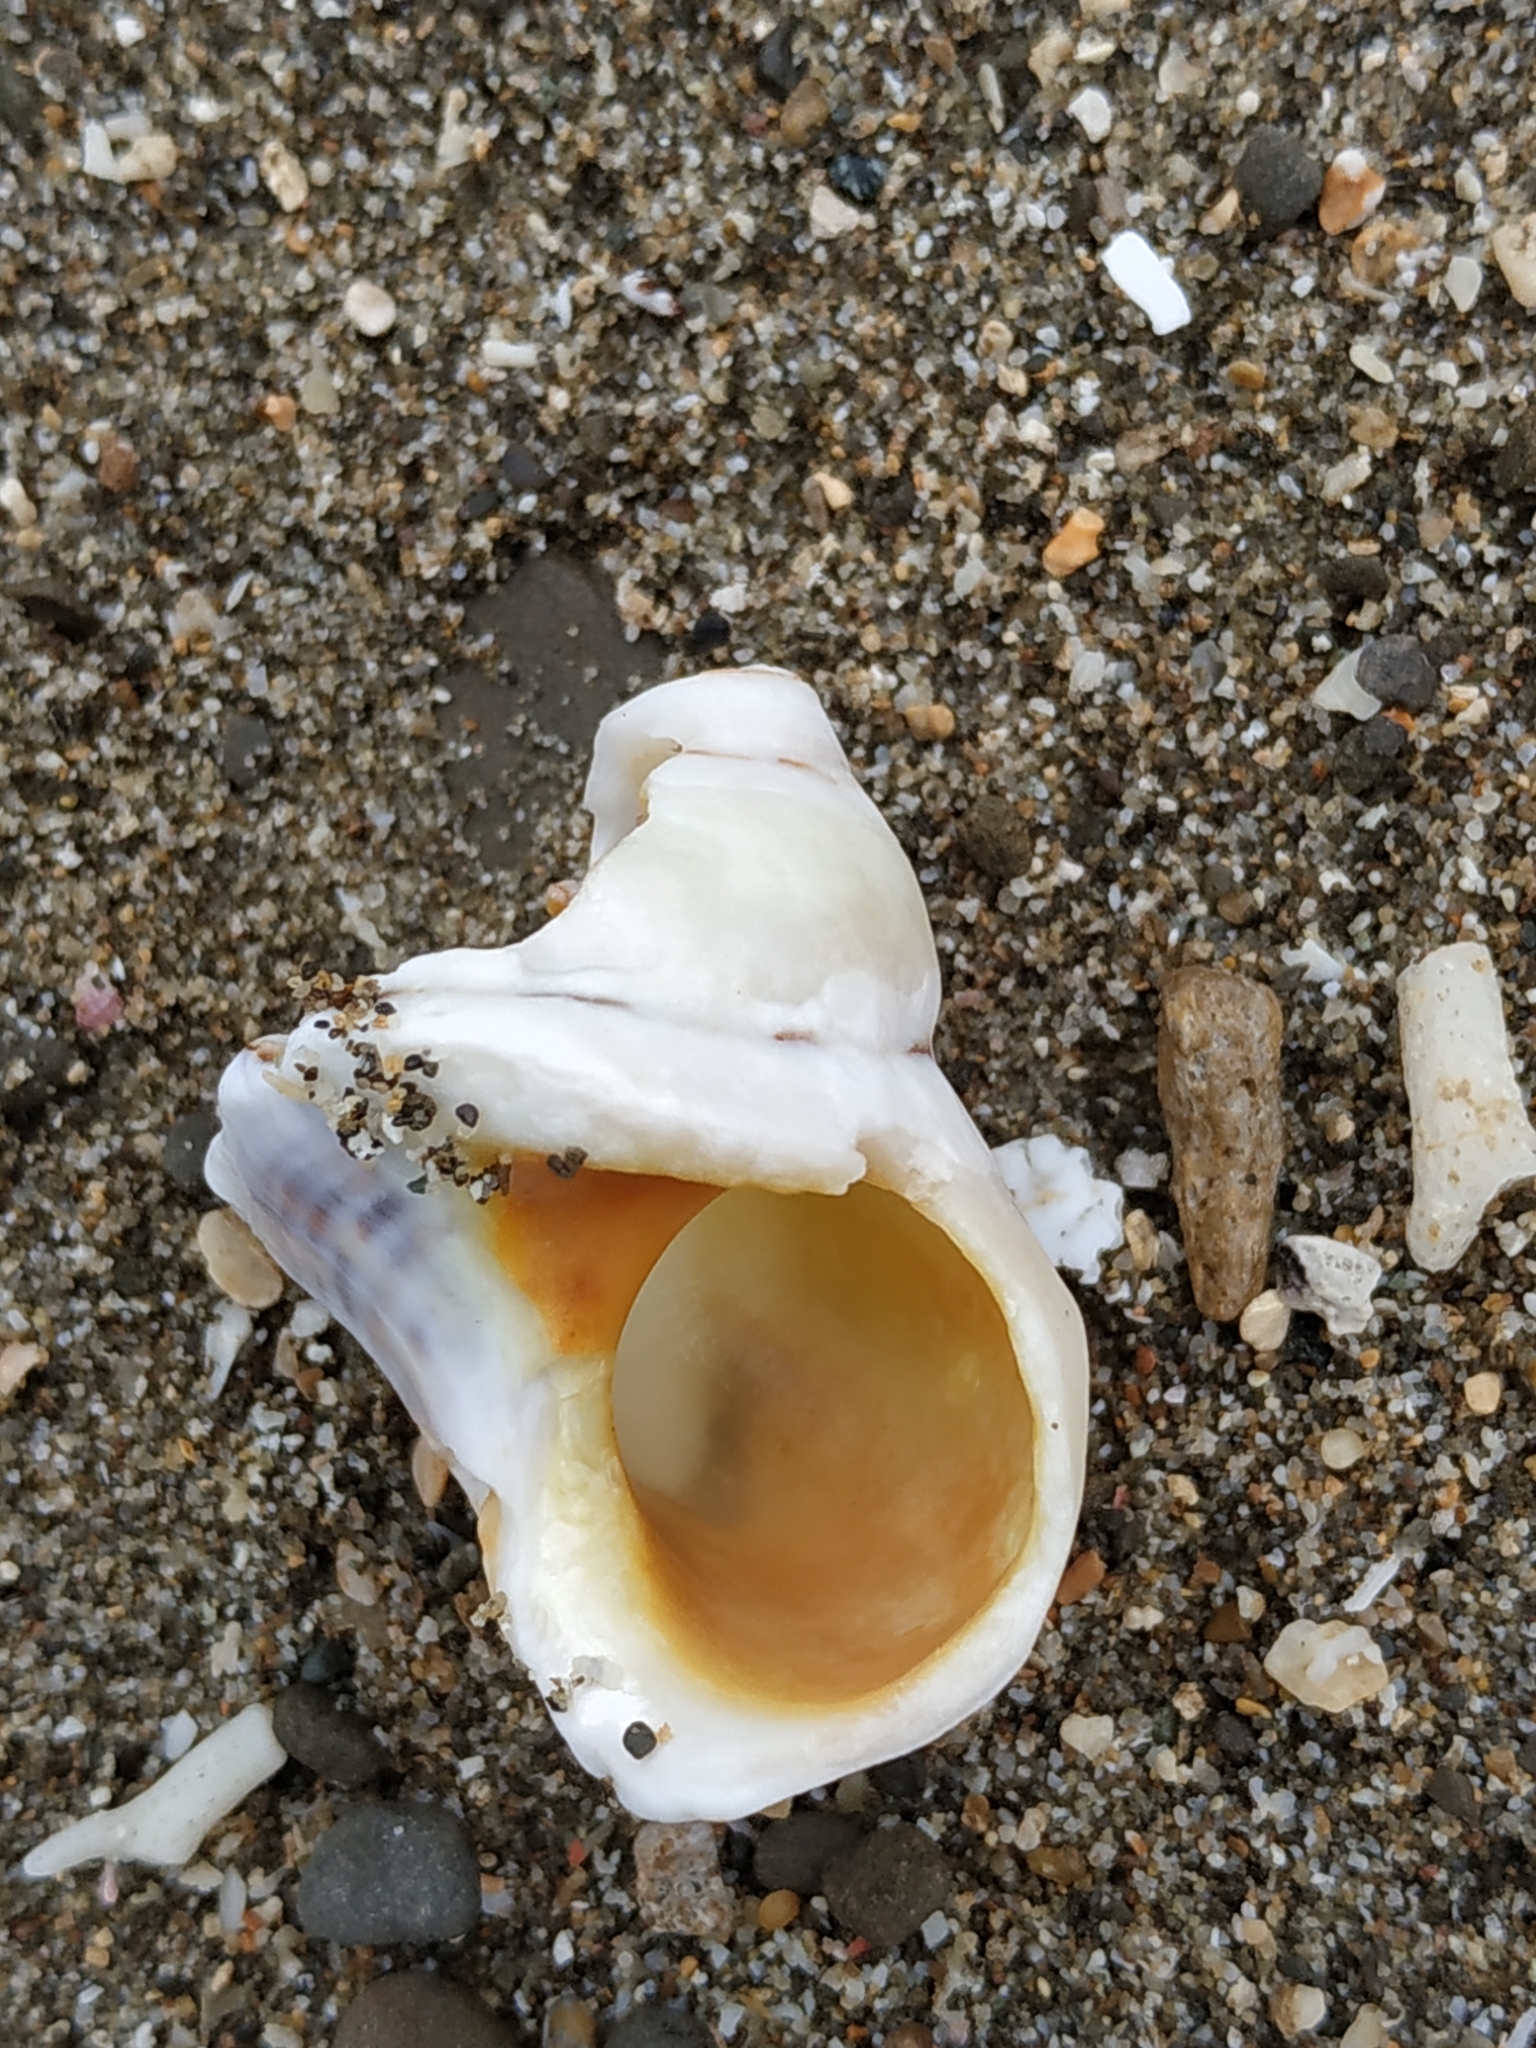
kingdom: Animalia
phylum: Mollusca
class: Gastropoda
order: Trochida
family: Turbinidae
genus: Turbo
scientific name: Turbo chrysostomus
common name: Gold-mouthed turban
